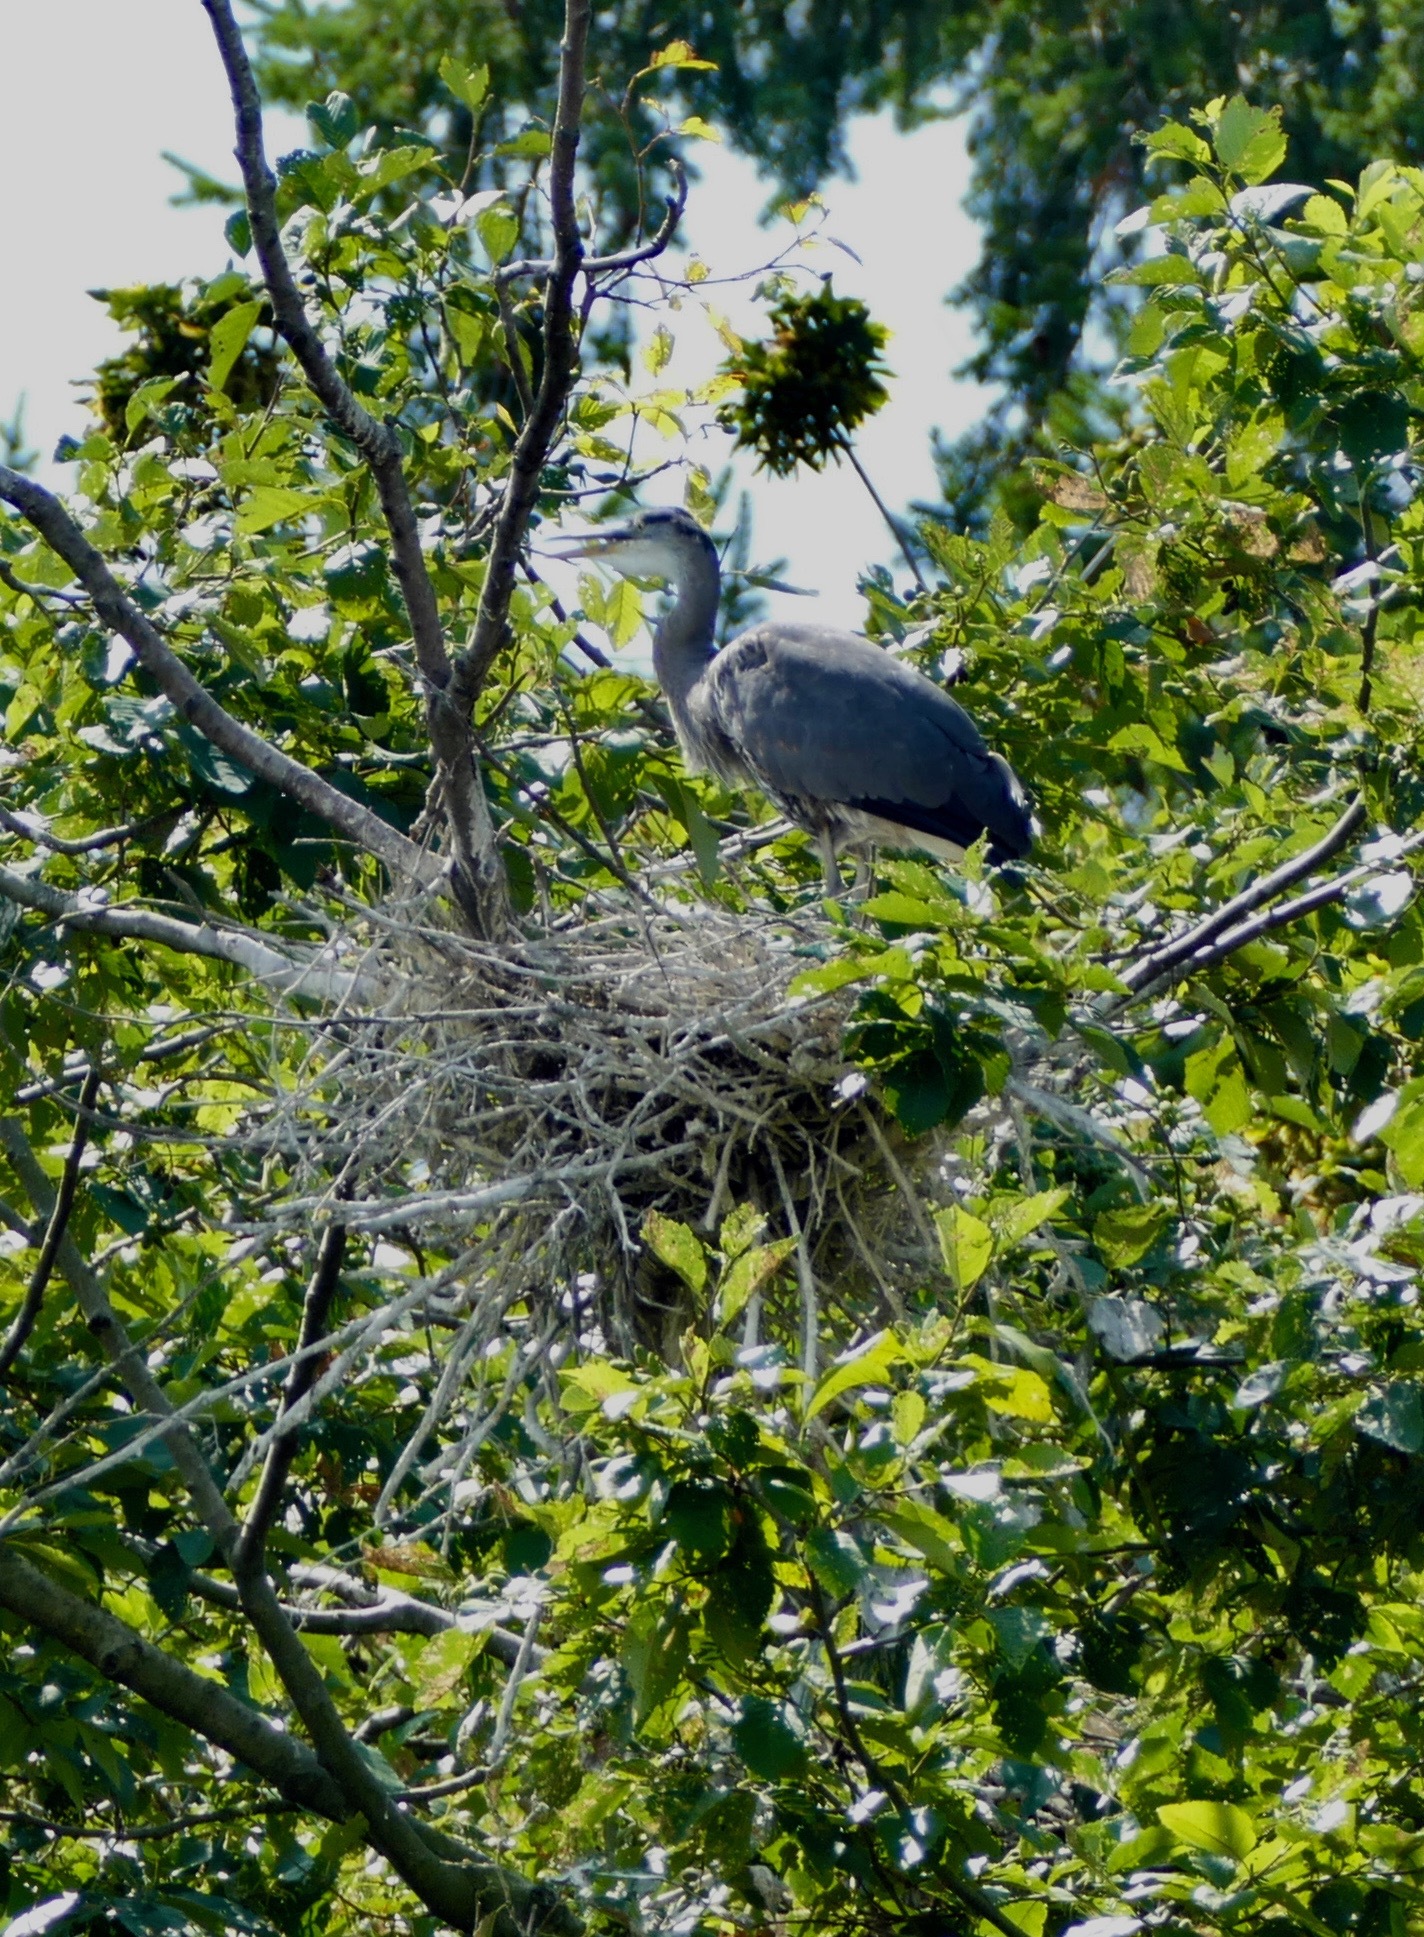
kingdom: Animalia
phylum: Chordata
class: Aves
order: Pelecaniformes
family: Ardeidae
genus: Ardea
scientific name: Ardea herodias
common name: Great blue heron
